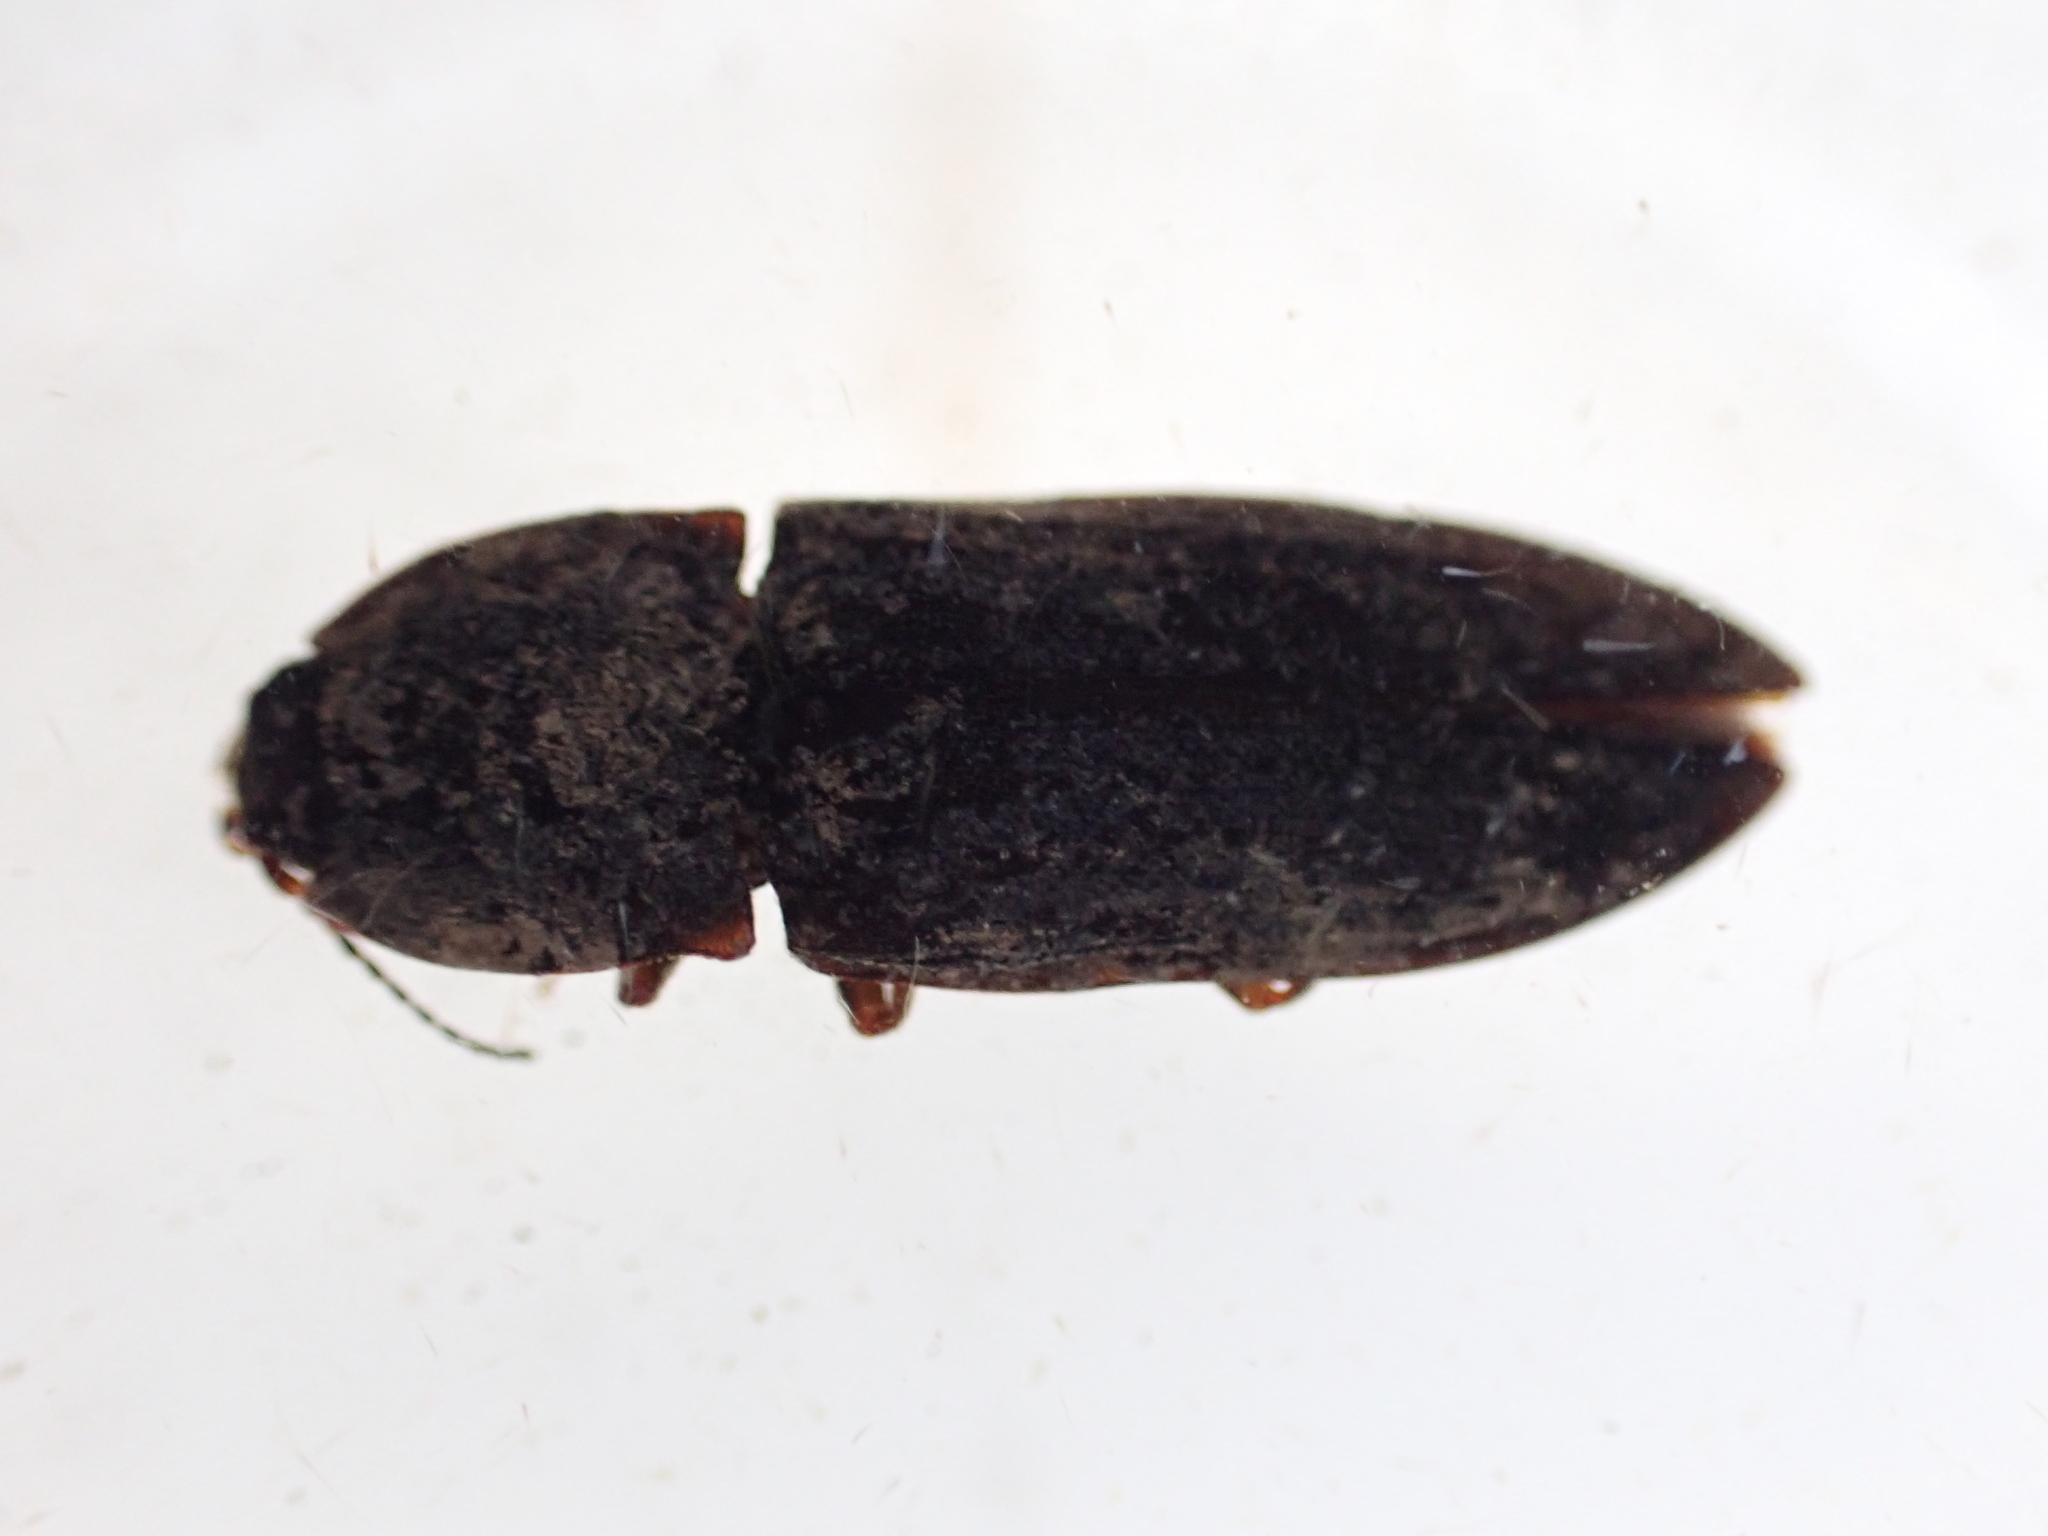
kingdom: Animalia
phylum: Arthropoda
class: Insecta
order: Coleoptera
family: Elateridae
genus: Agrypnus
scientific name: Agrypnus
